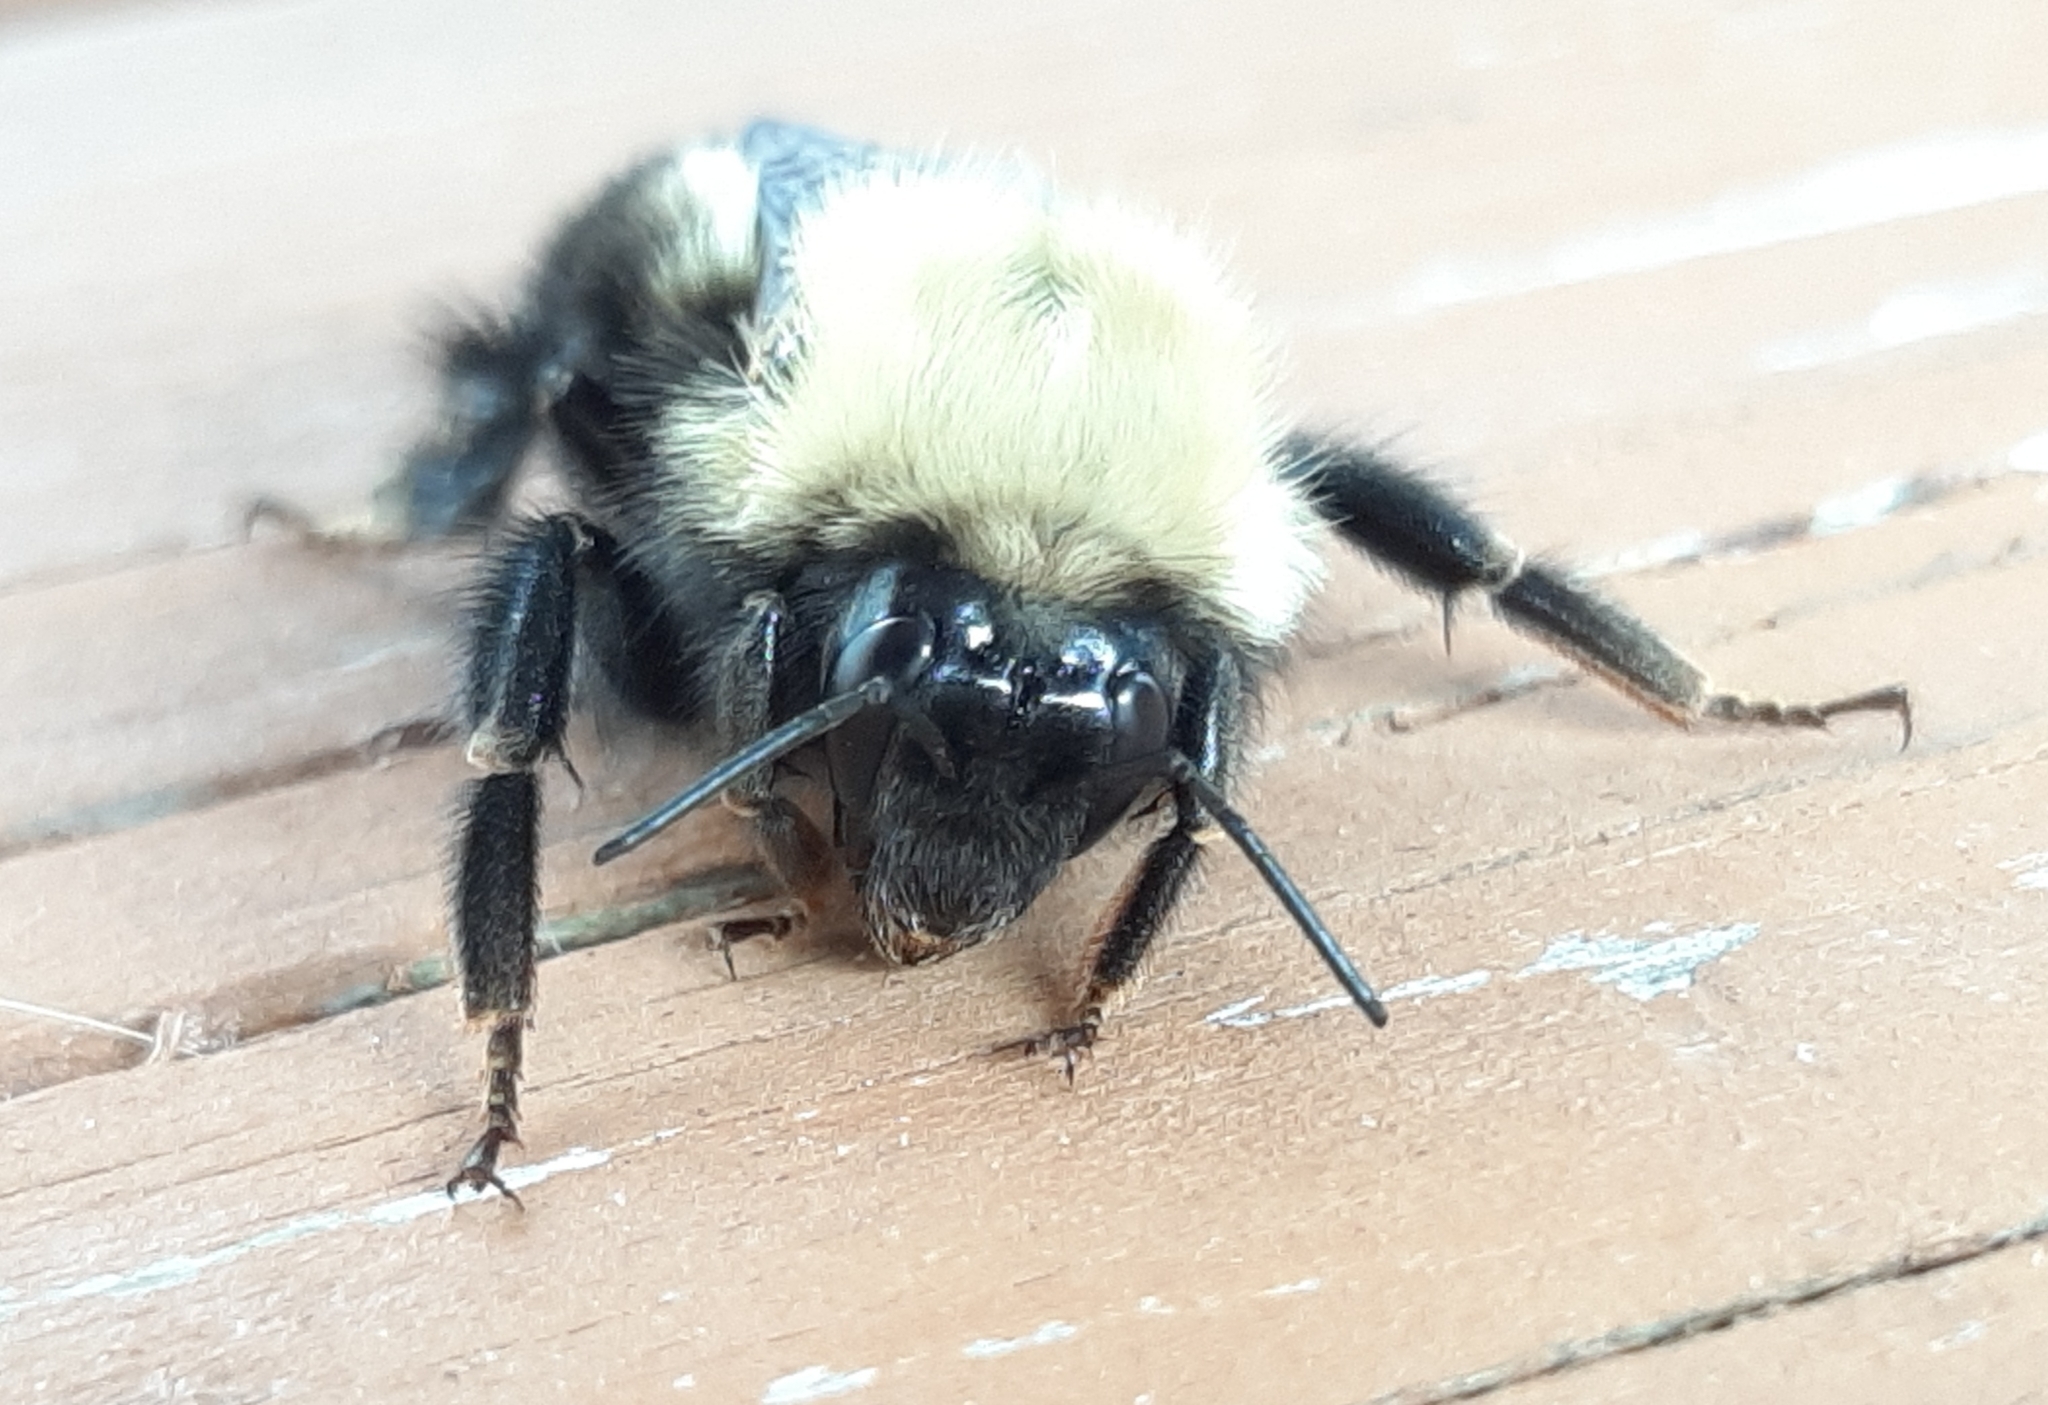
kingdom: Animalia
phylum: Arthropoda
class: Insecta
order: Hymenoptera
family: Apidae
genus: Bombus
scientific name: Bombus perplexus
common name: Confusing bumble bee
